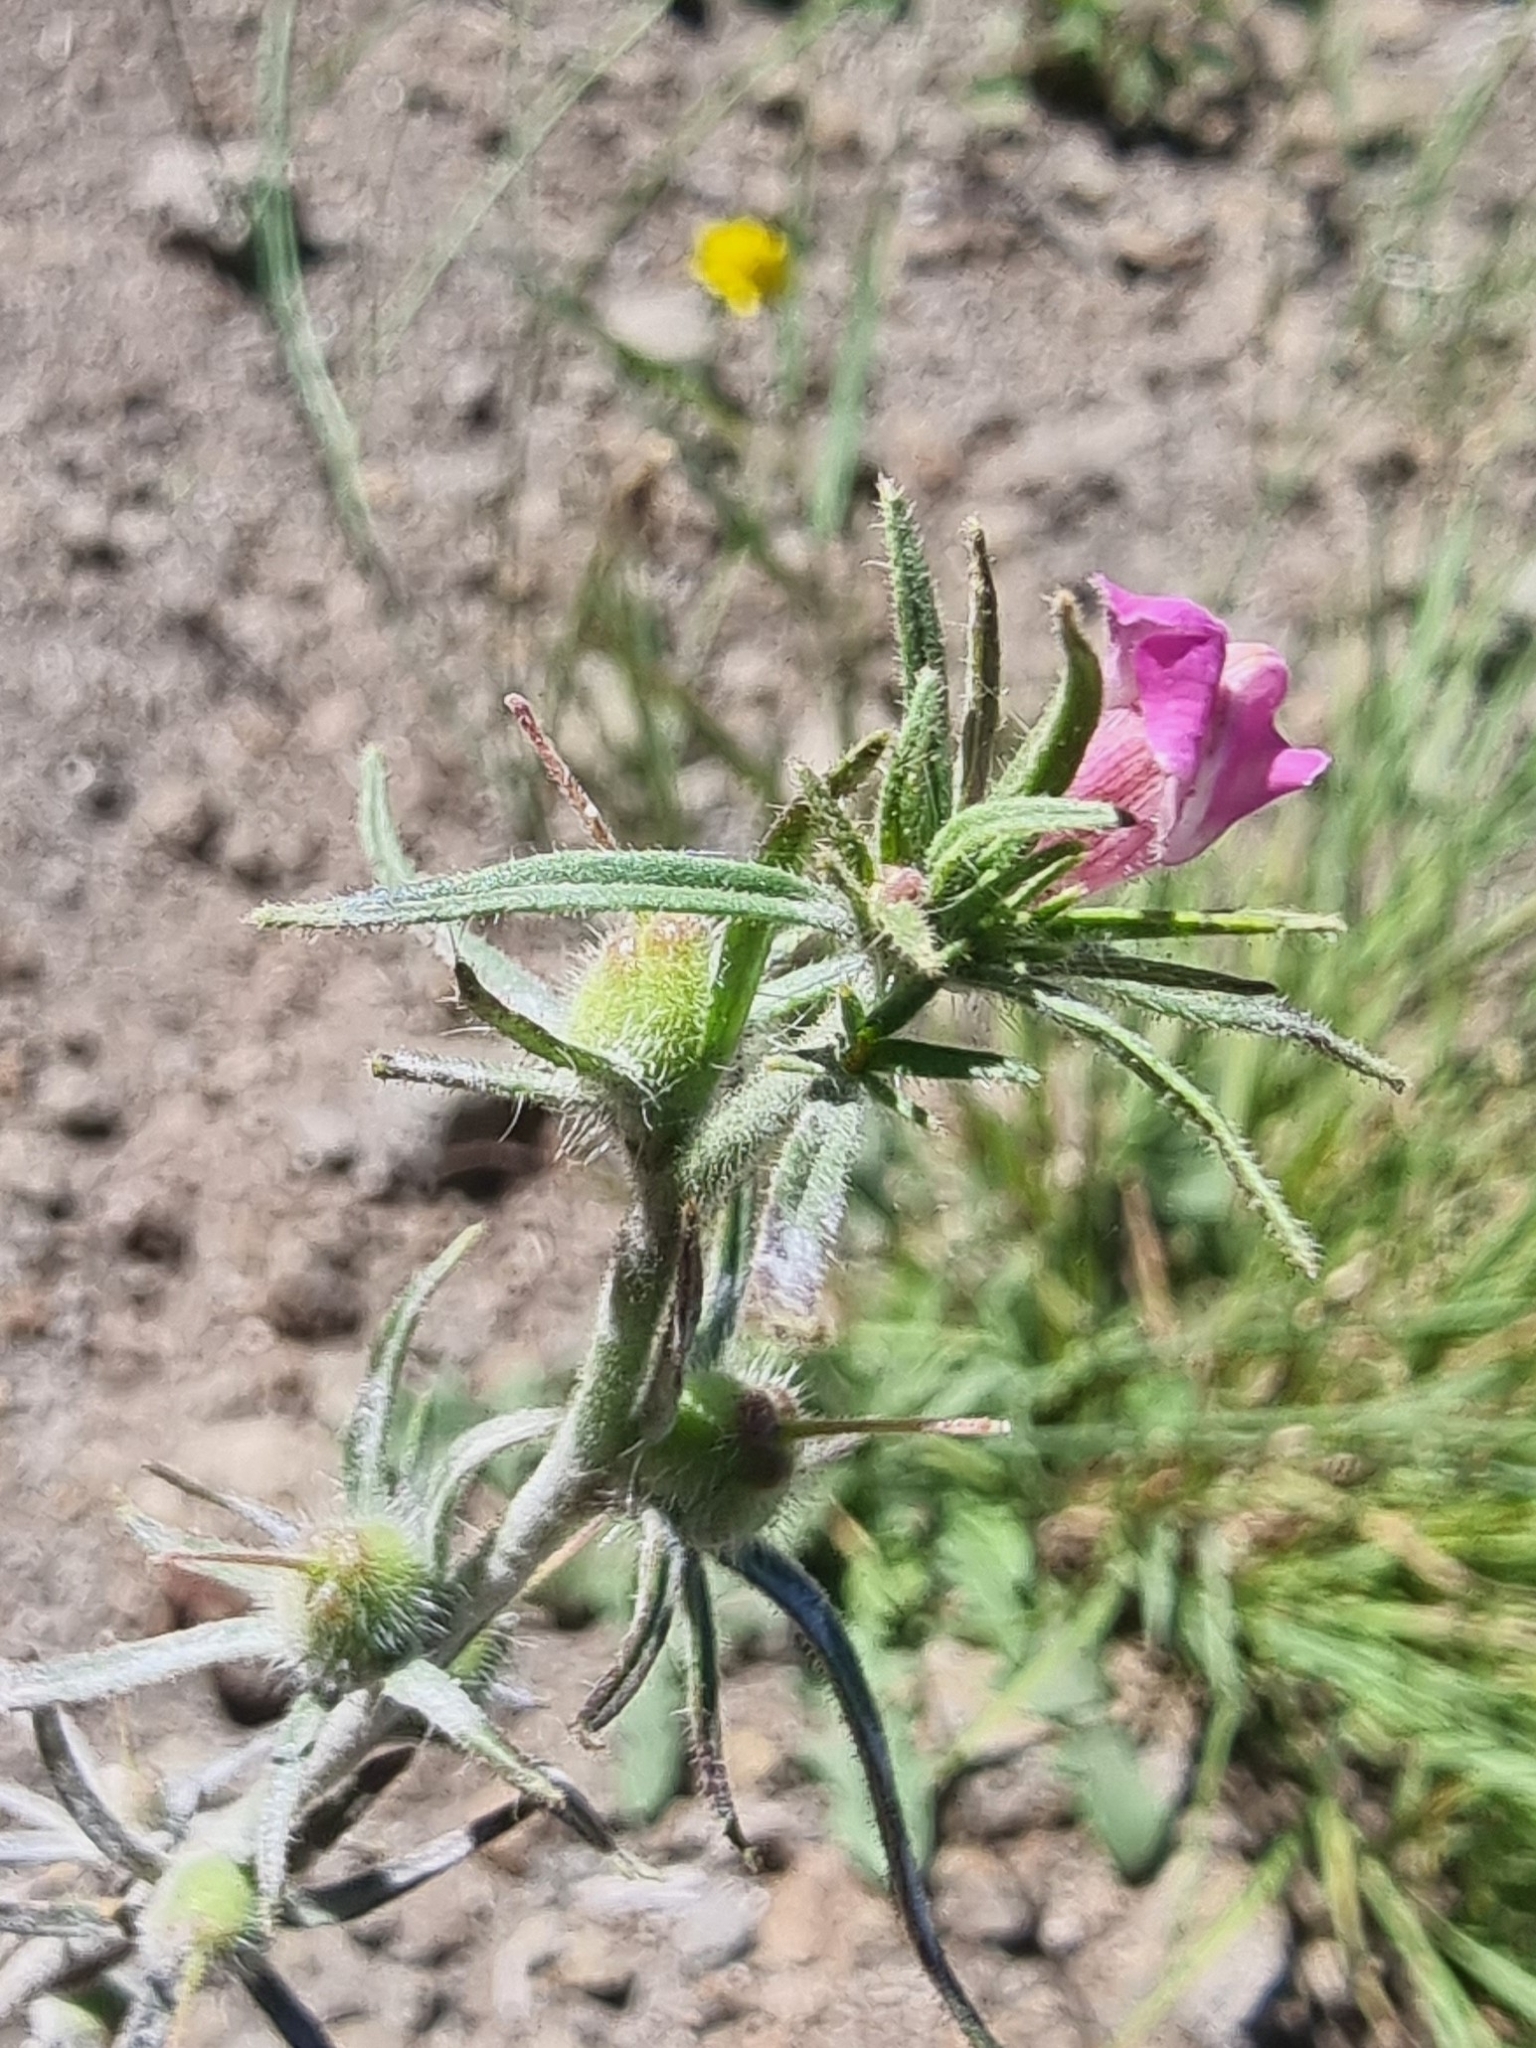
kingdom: Plantae
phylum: Tracheophyta
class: Magnoliopsida
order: Lamiales
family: Plantaginaceae
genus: Misopates
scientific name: Misopates orontium
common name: Weasel's-snout
